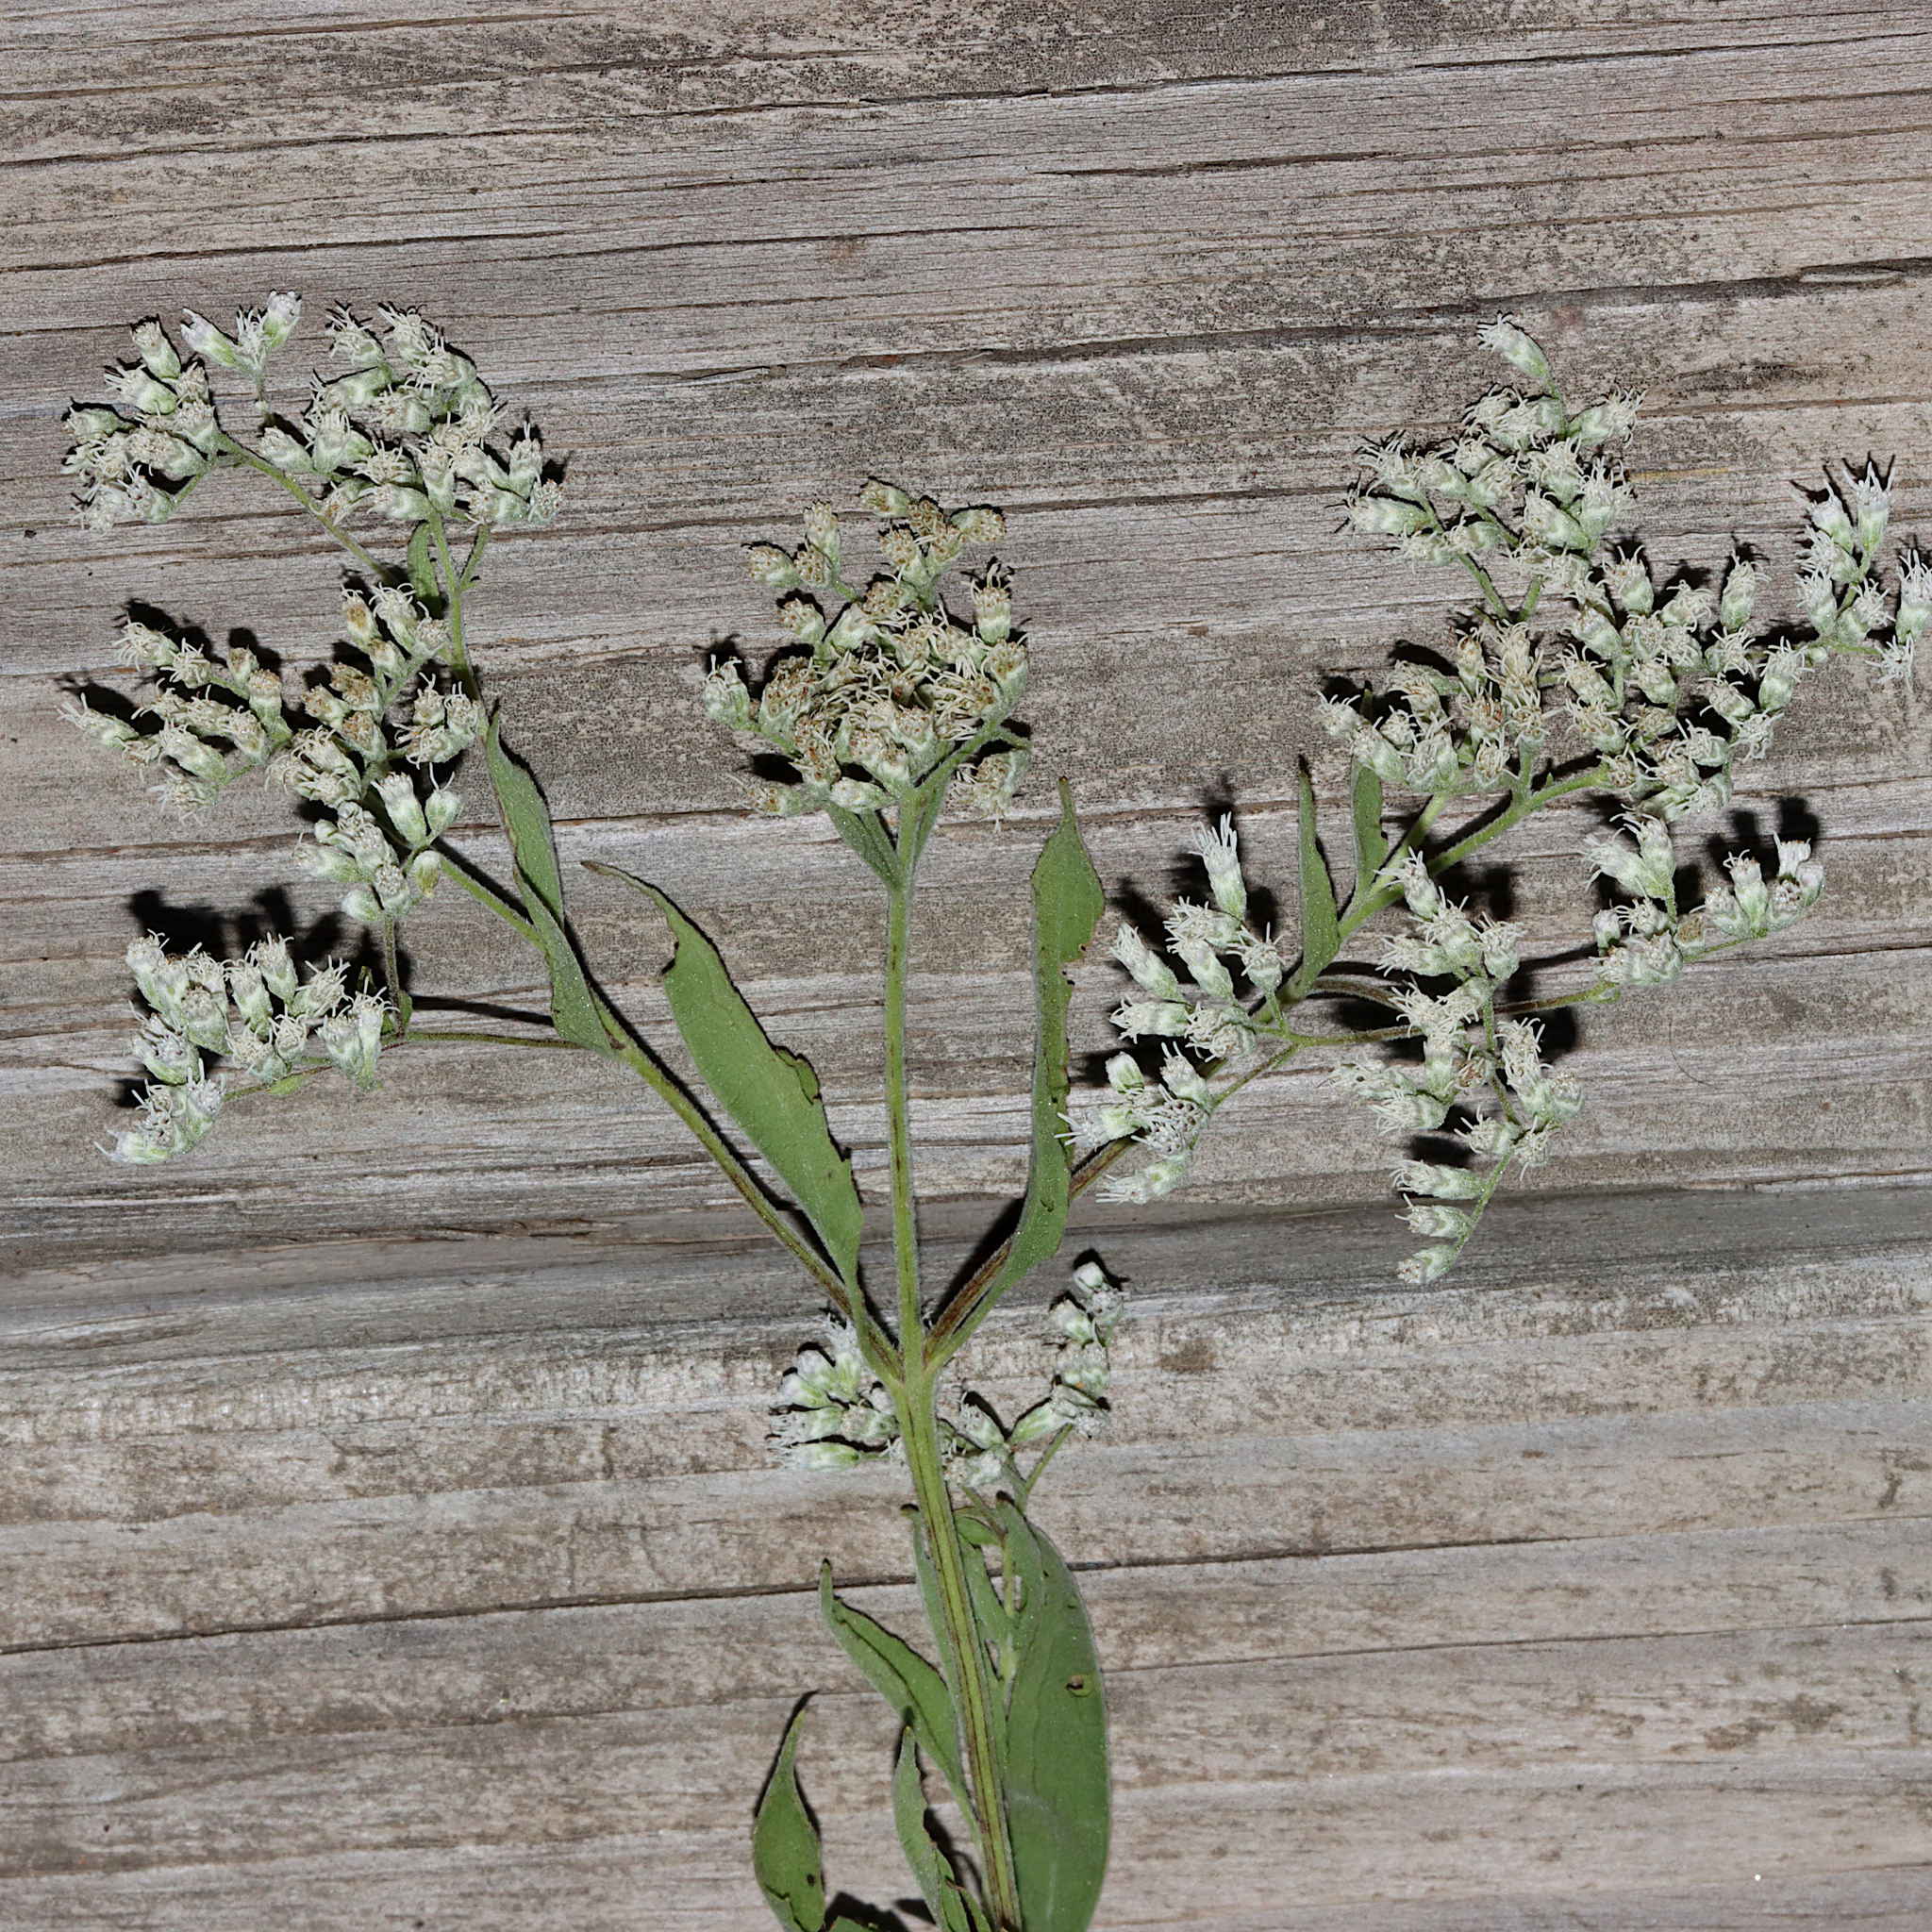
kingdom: Plantae
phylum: Tracheophyta
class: Magnoliopsida
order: Asterales
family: Asteraceae
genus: Eupatorium
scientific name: Eupatorium serotinum
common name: Late boneset
